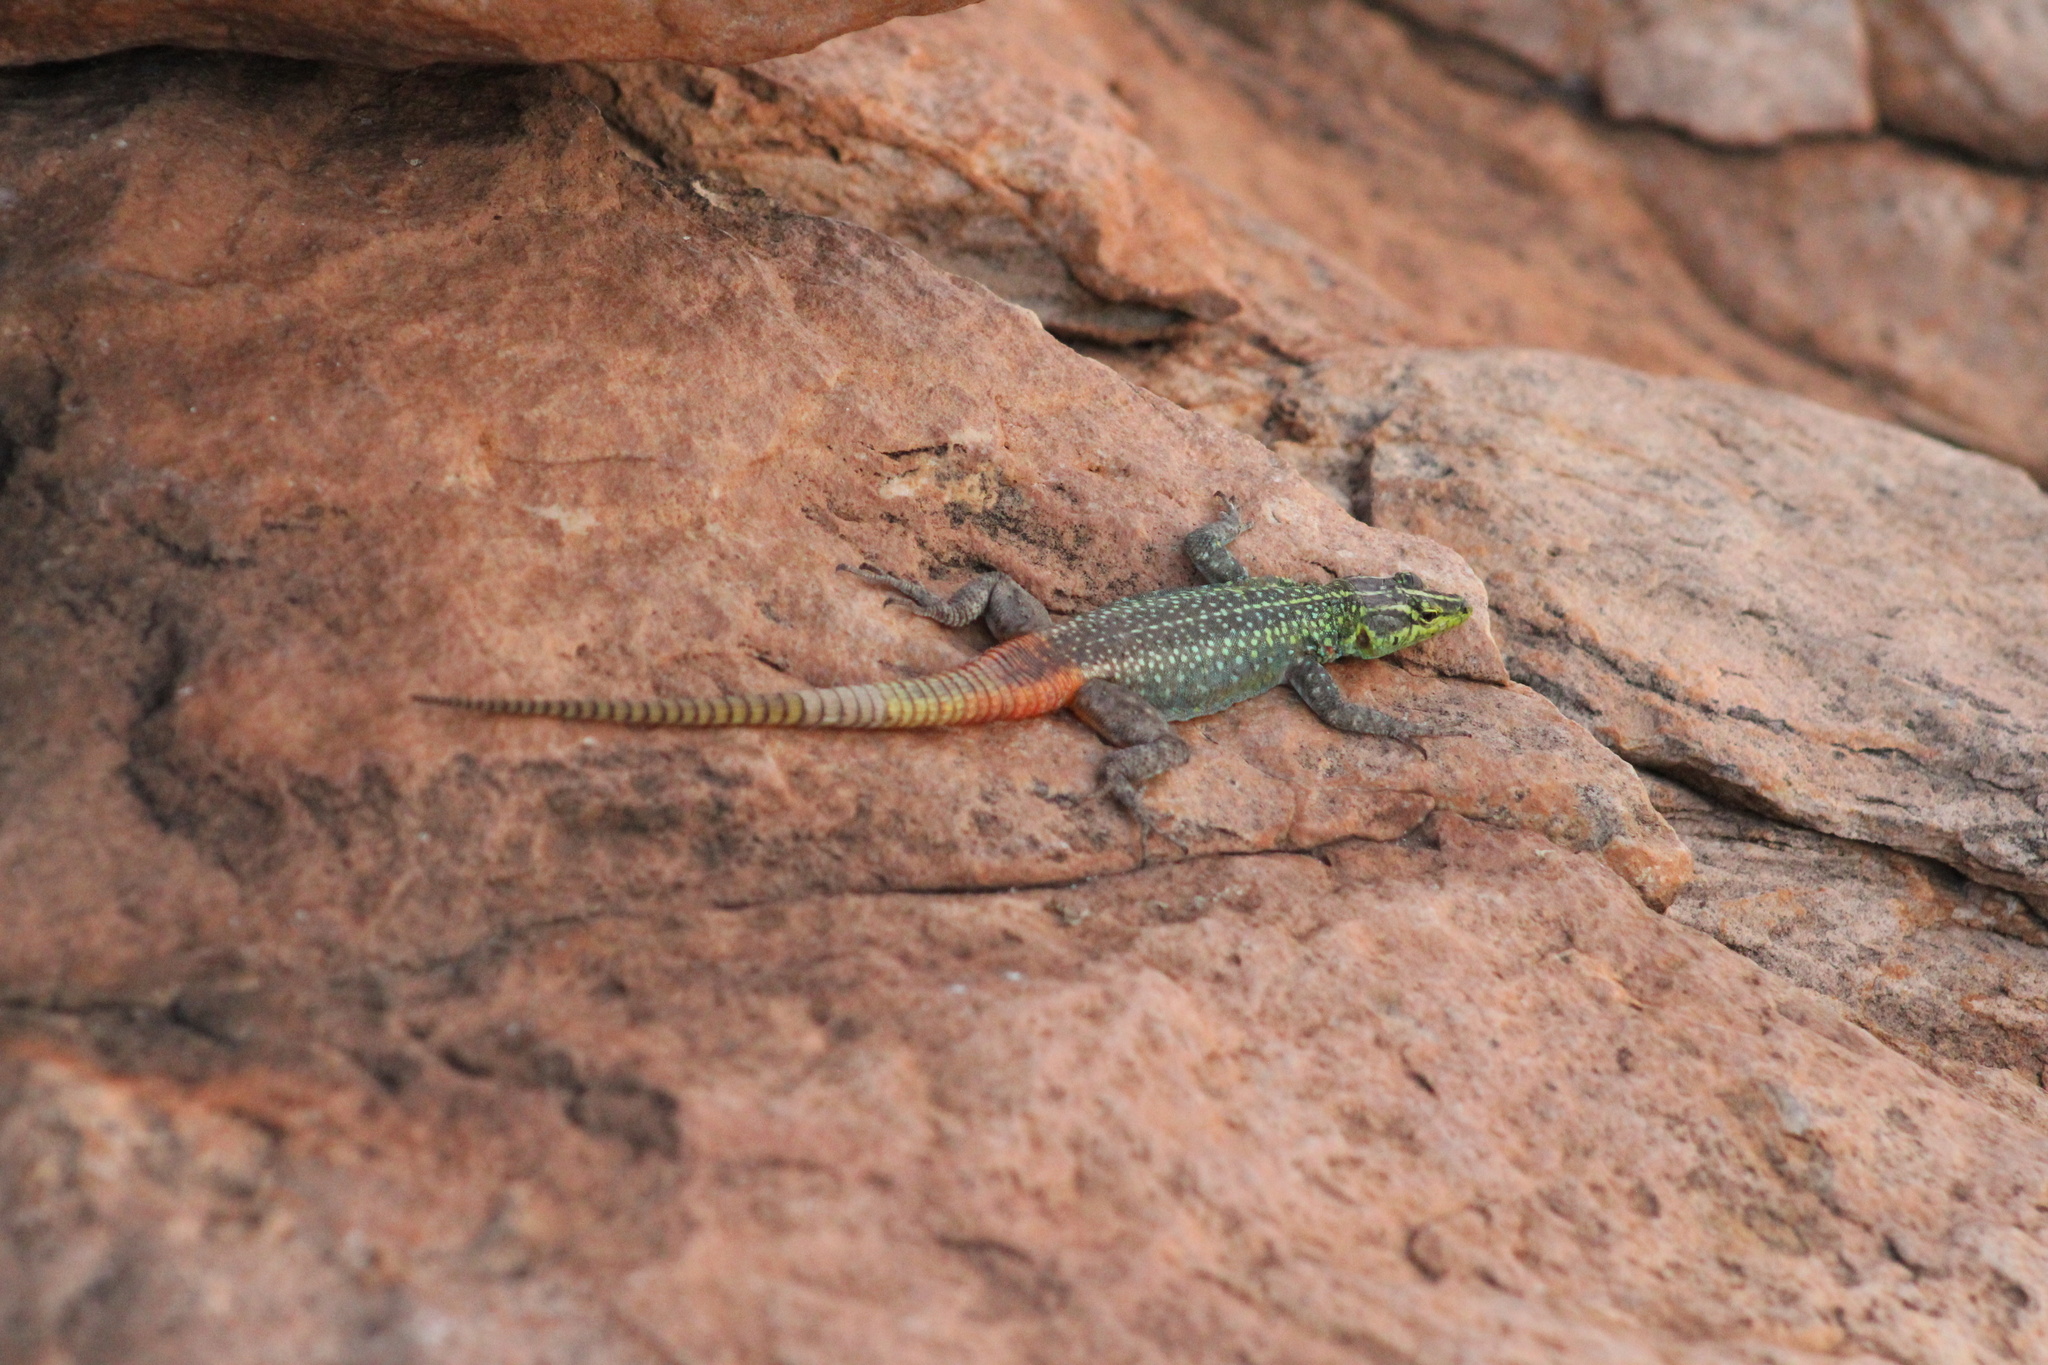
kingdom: Animalia
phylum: Chordata
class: Squamata
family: Cordylidae
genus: Platysaurus
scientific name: Platysaurus intermedius
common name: Common flat lizard
